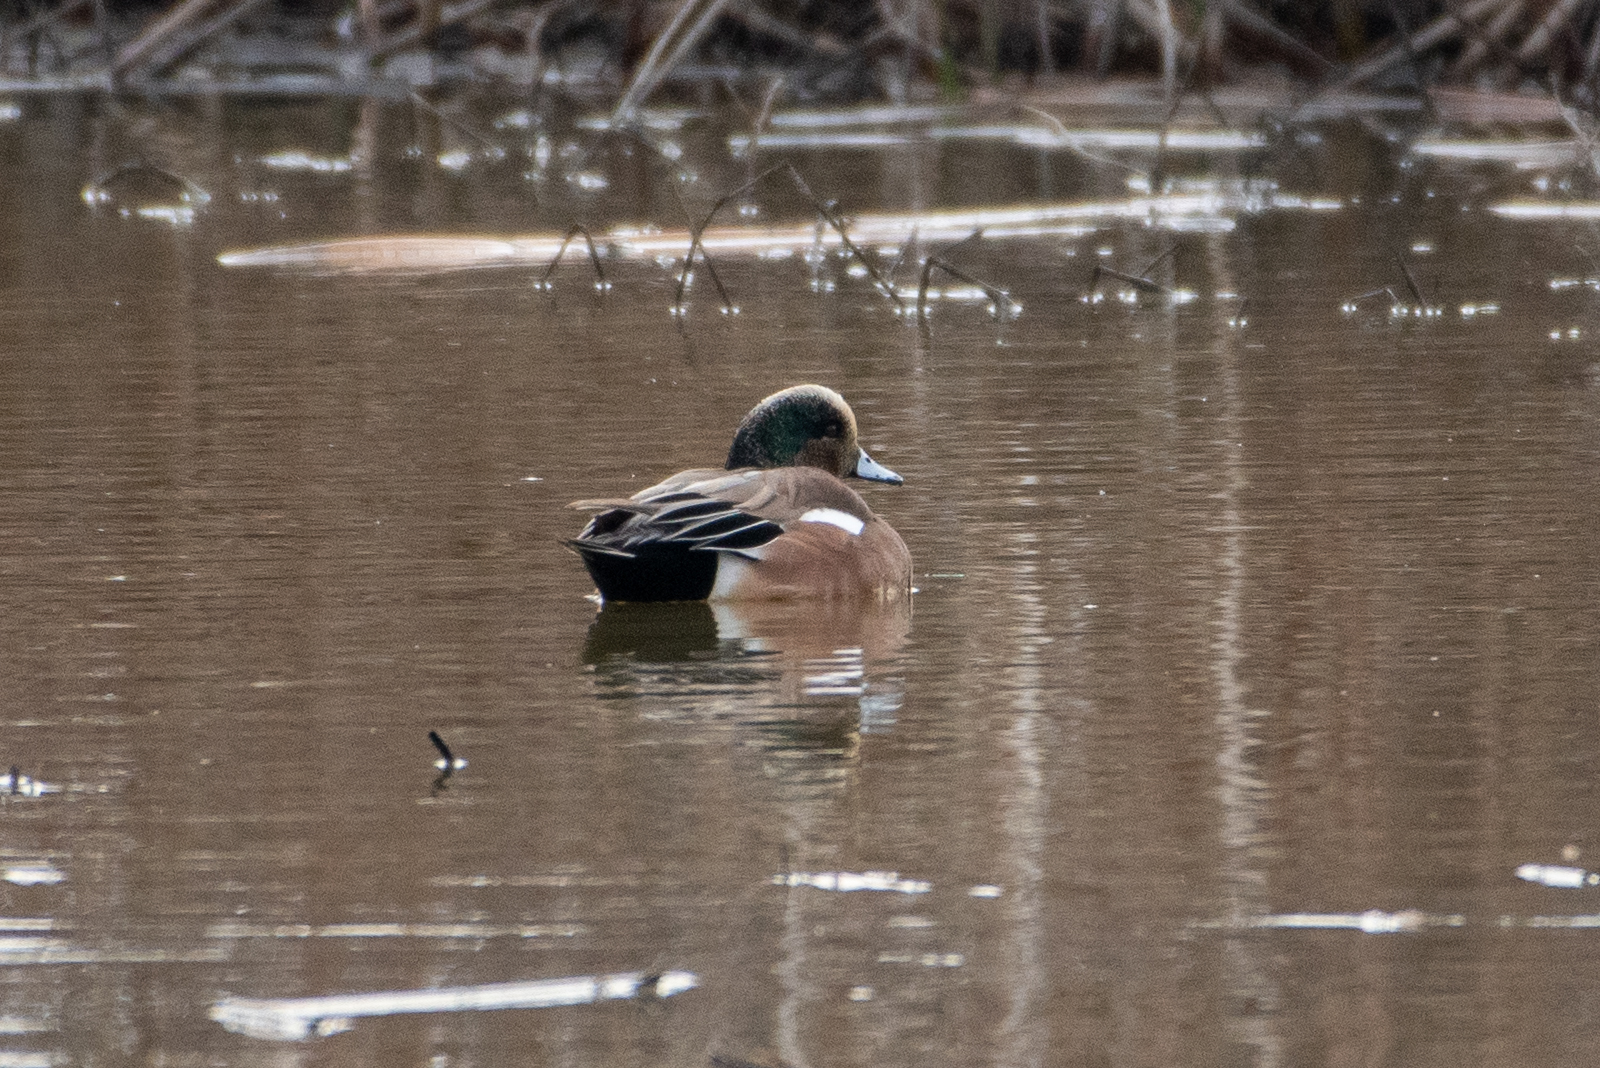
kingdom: Animalia
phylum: Chordata
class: Aves
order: Anseriformes
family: Anatidae
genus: Mareca
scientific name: Mareca americana
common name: American wigeon
